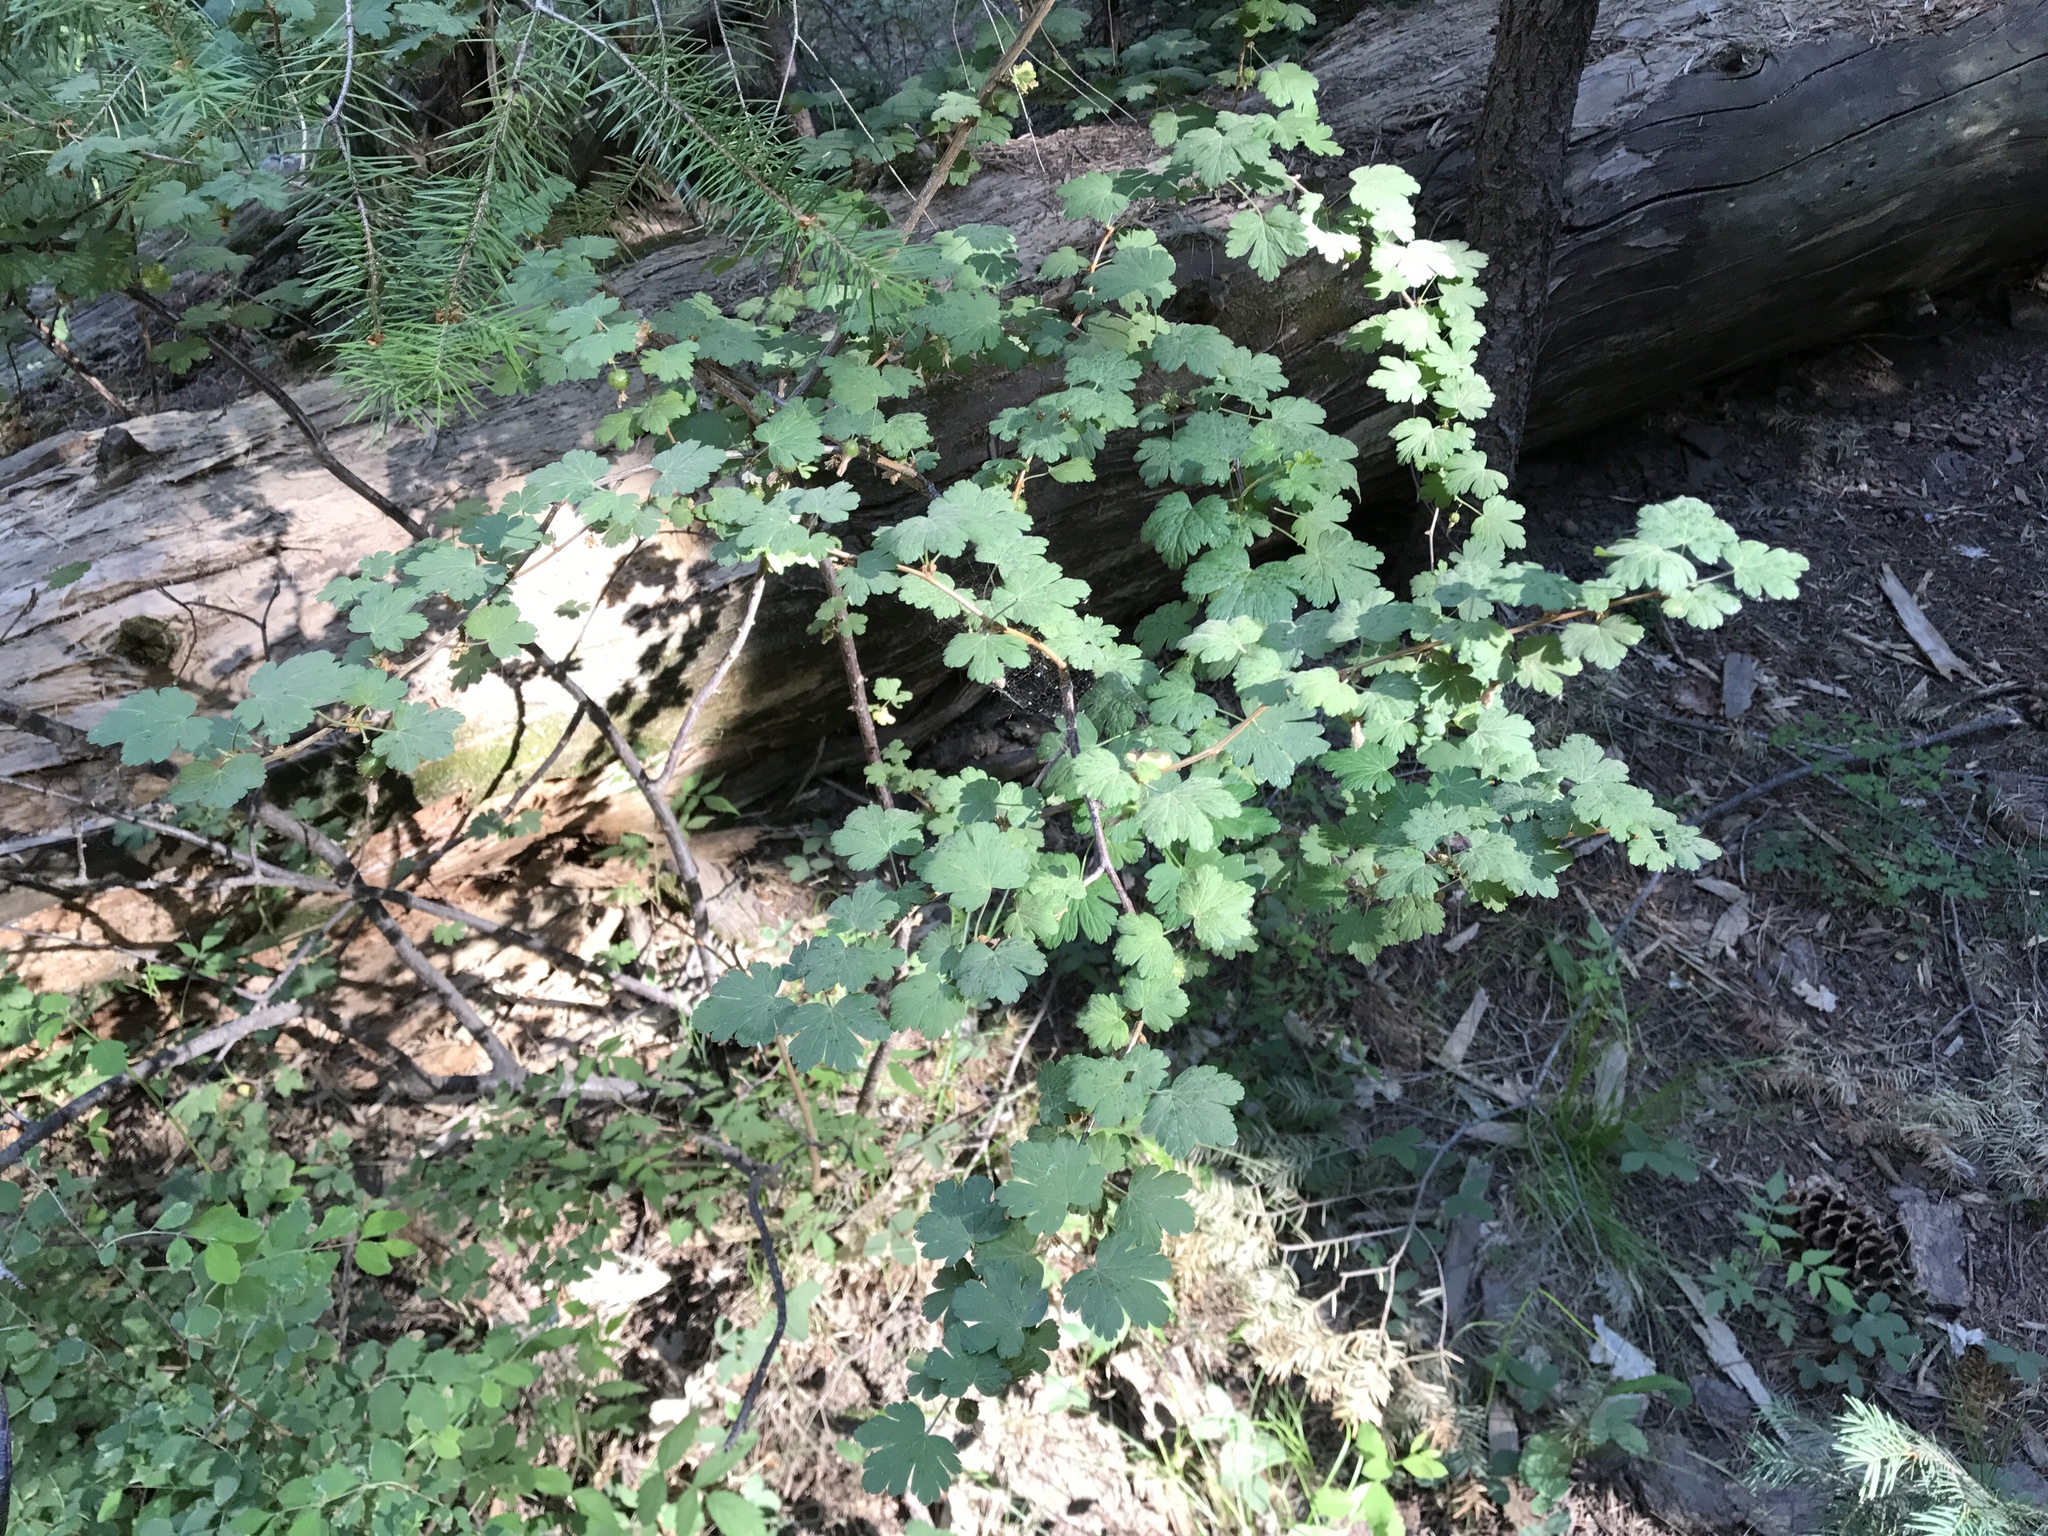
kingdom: Plantae
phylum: Tracheophyta
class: Magnoliopsida
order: Saxifragales
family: Grossulariaceae
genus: Ribes
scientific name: Ribes pinetorum
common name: Orange gooseberry
